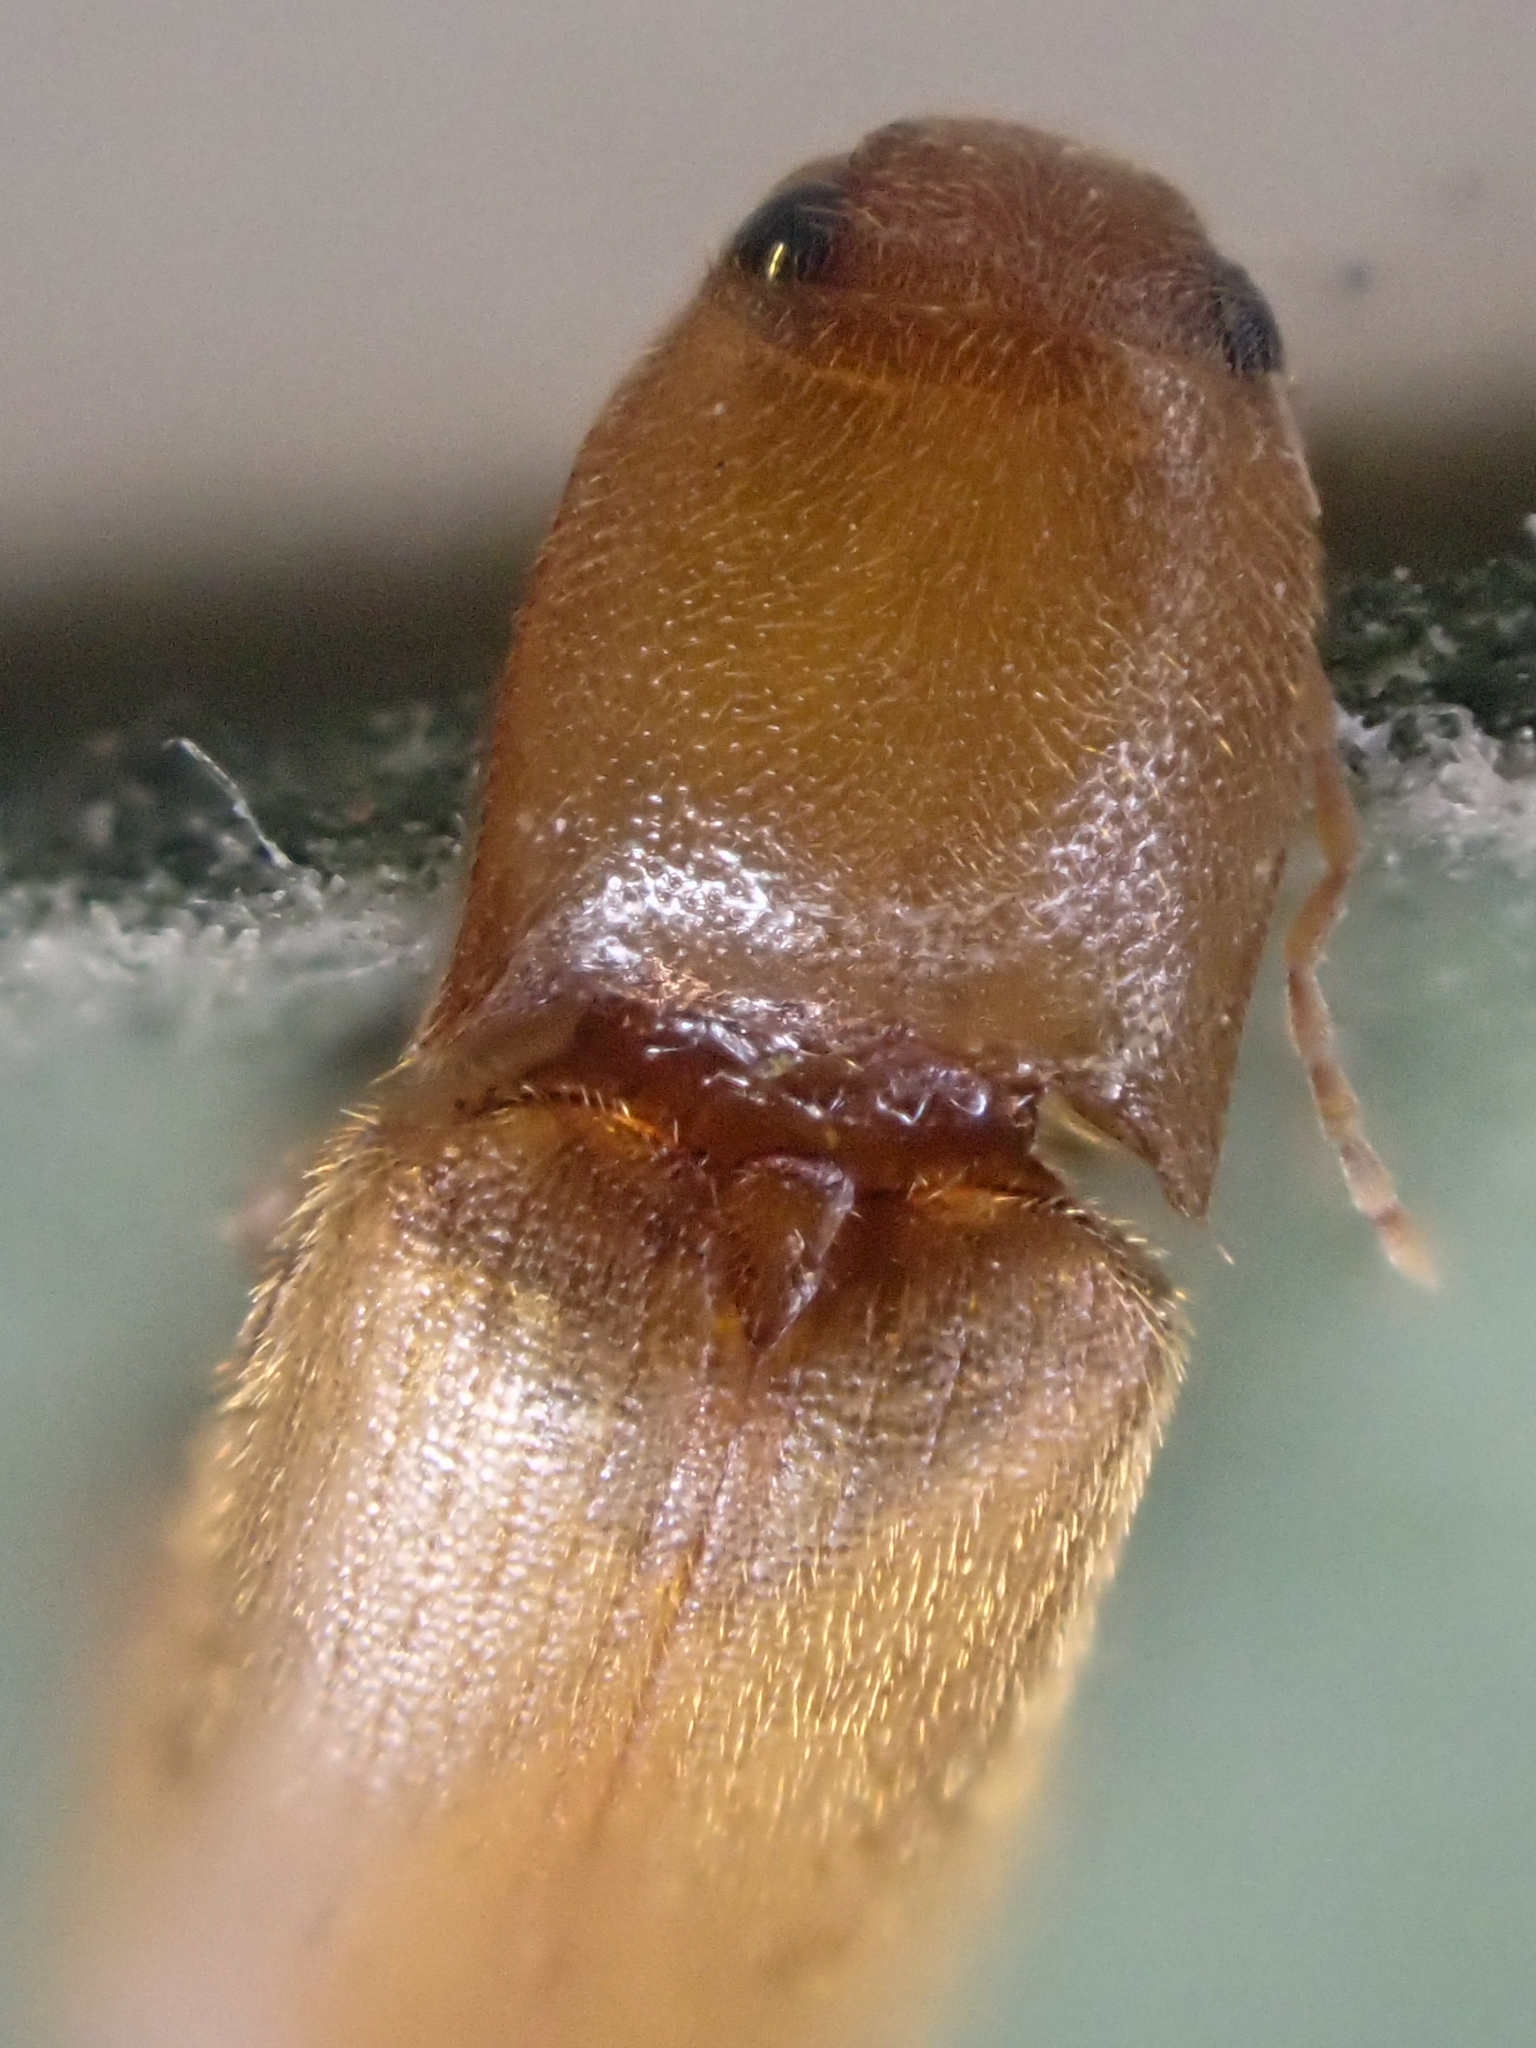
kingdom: Animalia
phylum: Arthropoda
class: Insecta
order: Coleoptera
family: Elateridae
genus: Dolerosomus
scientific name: Dolerosomus blaisdelli
